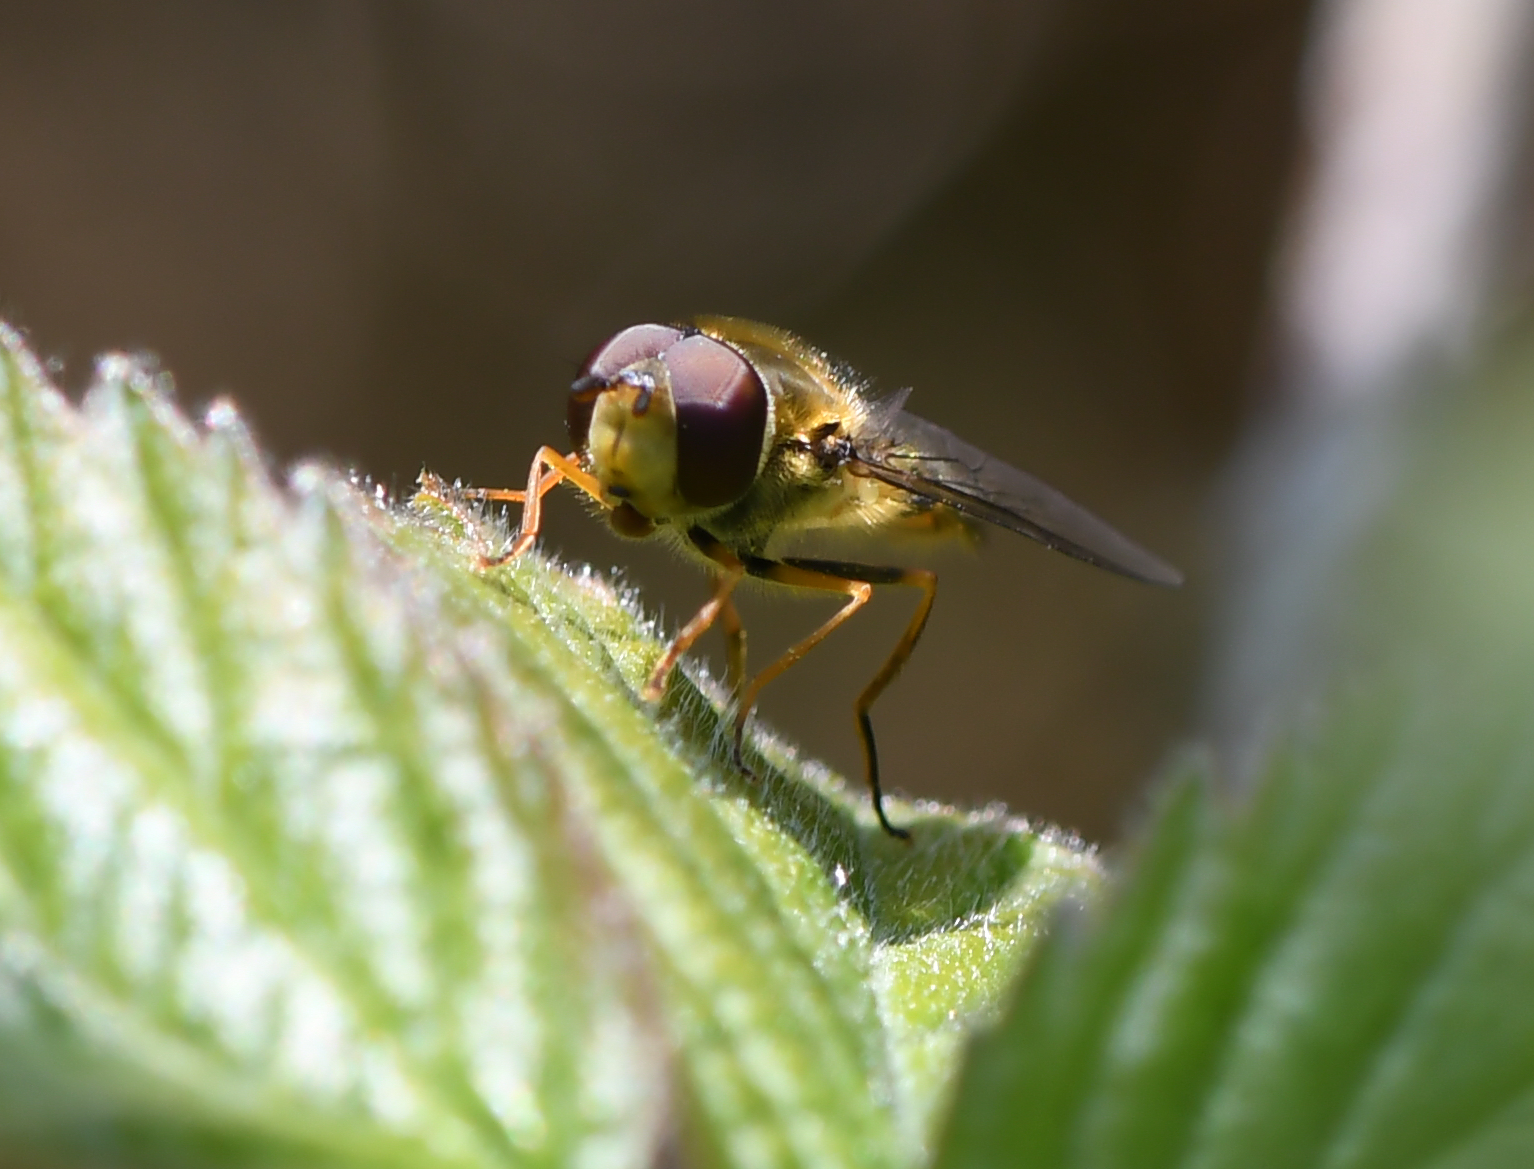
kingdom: Animalia
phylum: Arthropoda
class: Insecta
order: Diptera
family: Syrphidae
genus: Syrphus
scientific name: Syrphus vitripennis
